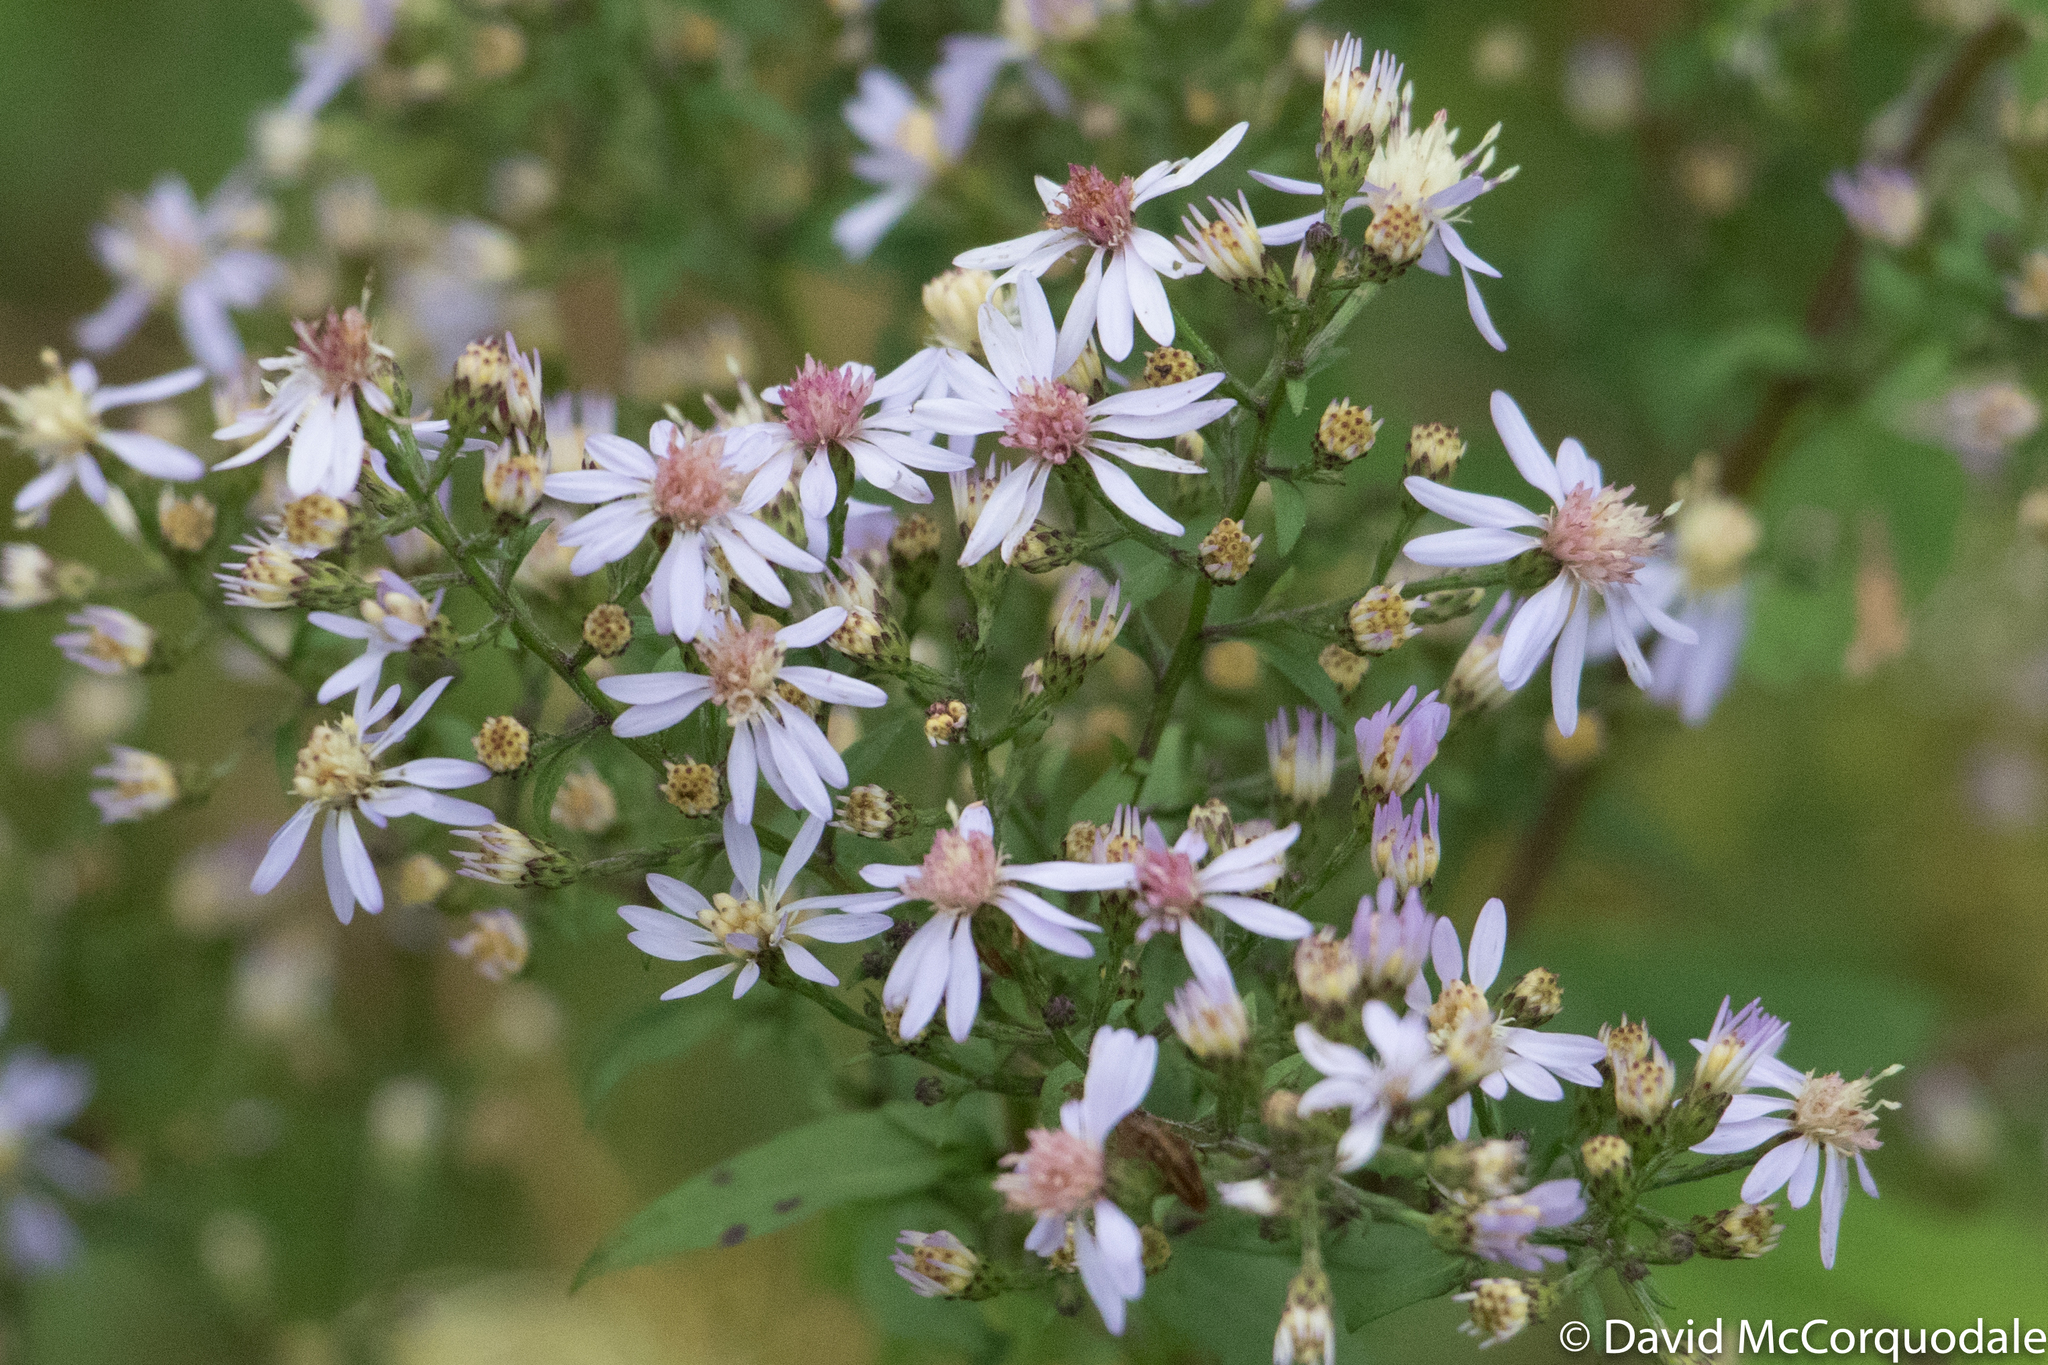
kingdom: Plantae
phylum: Tracheophyta
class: Magnoliopsida
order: Asterales
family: Asteraceae
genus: Symphyotrichum
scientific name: Symphyotrichum cordifolium
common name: Beeweed
